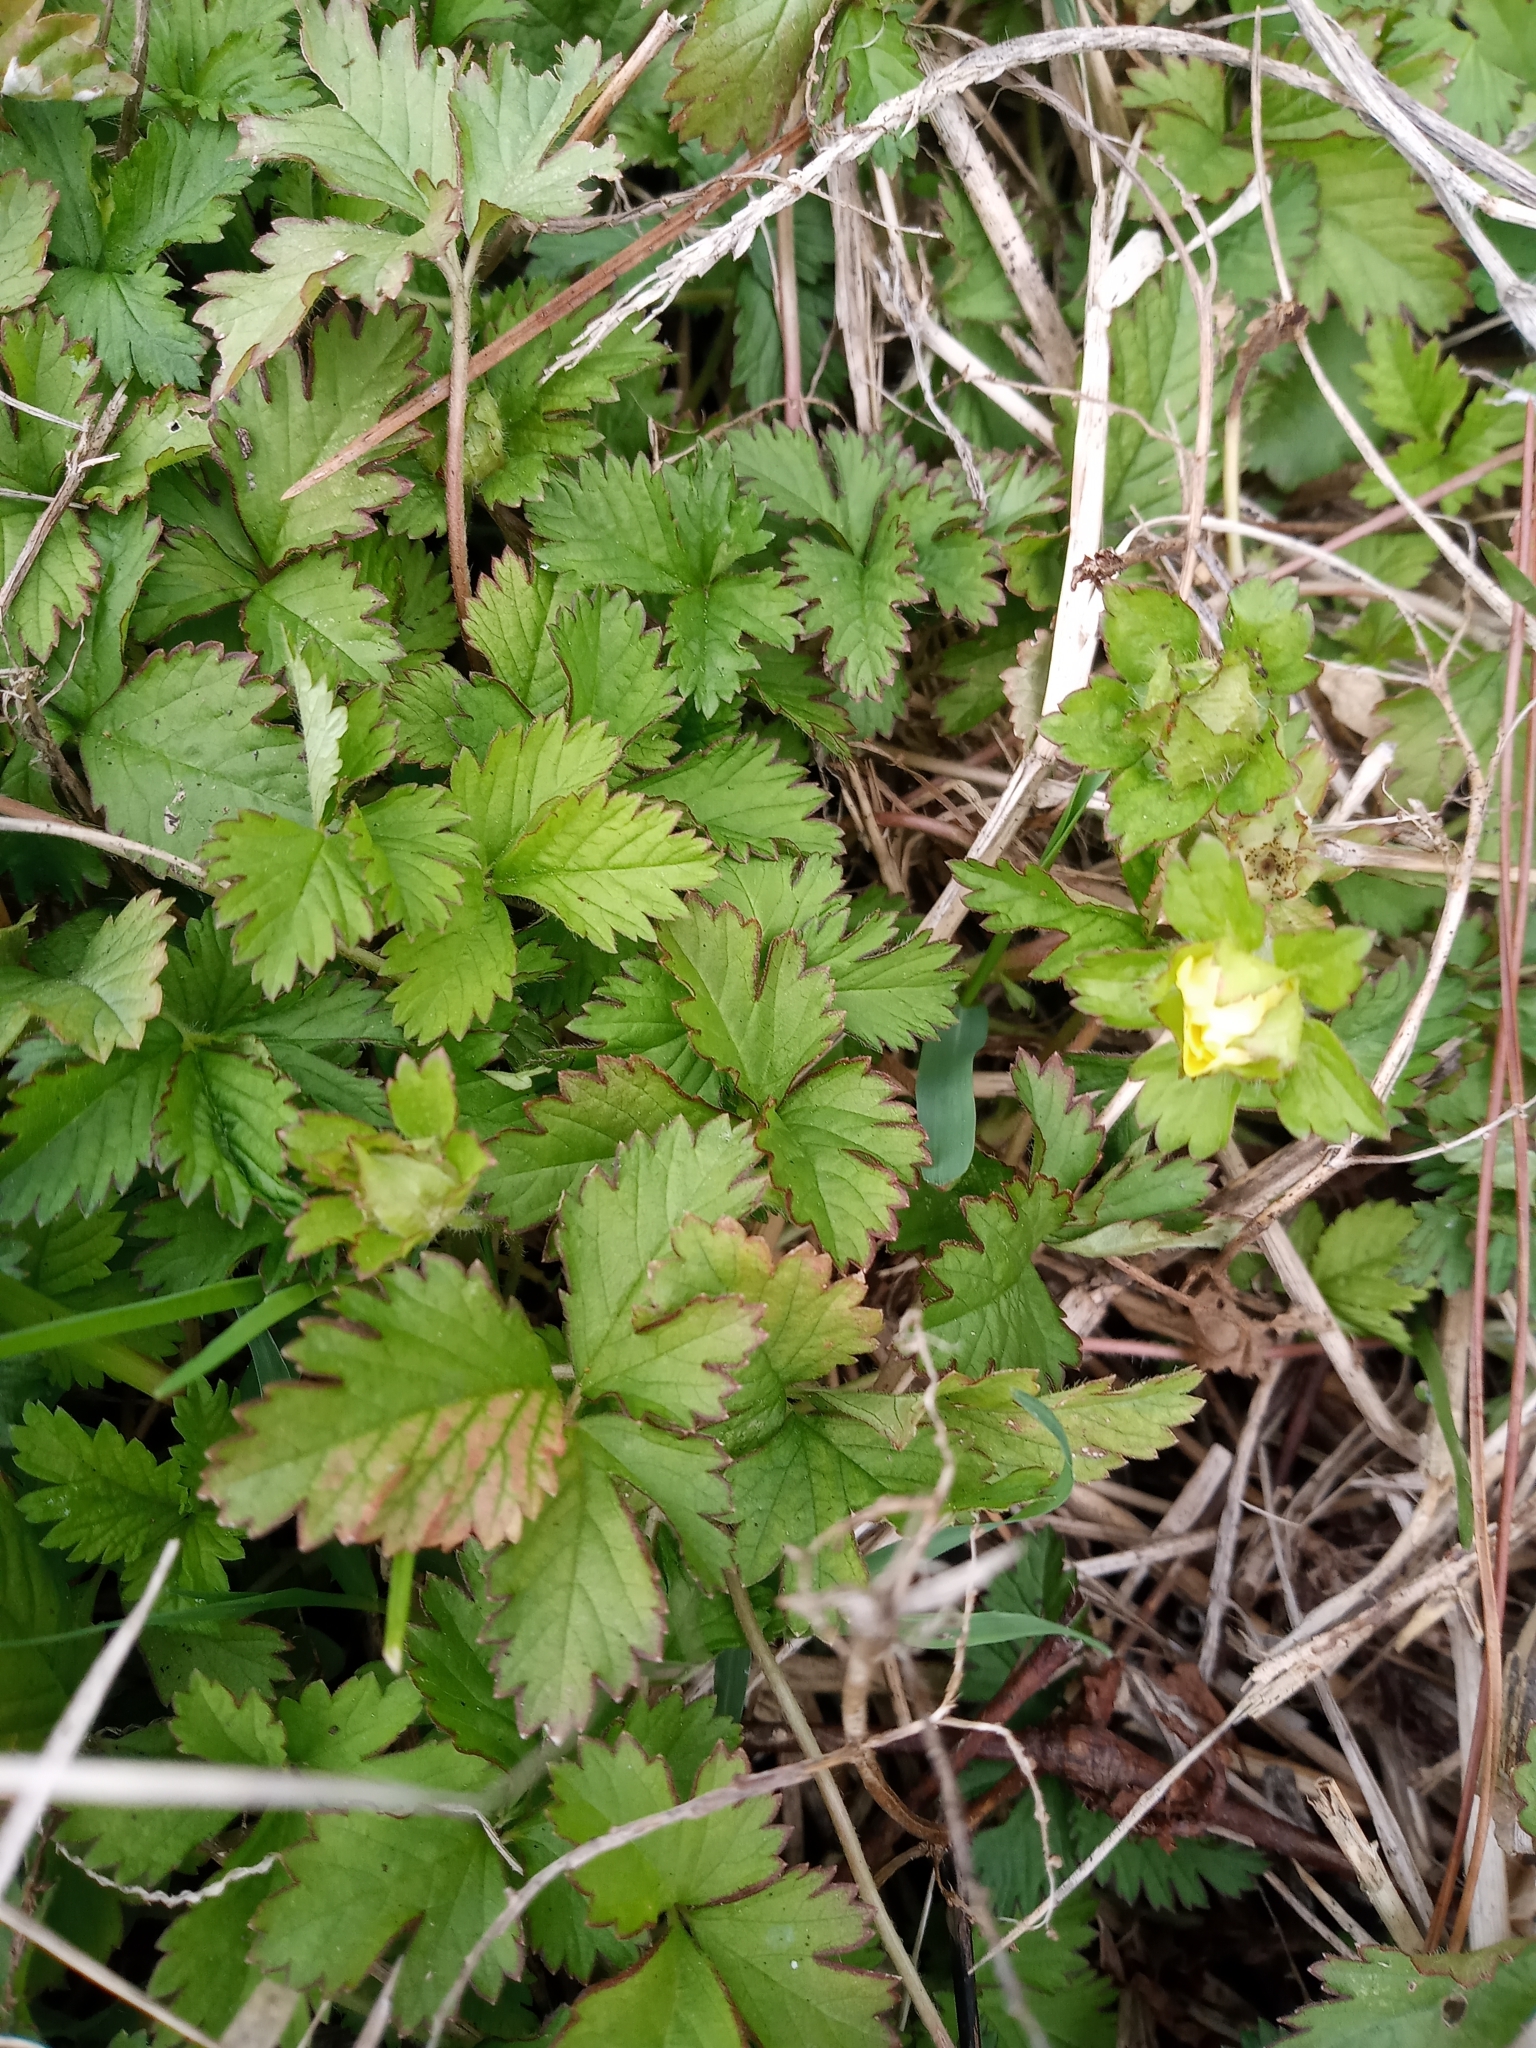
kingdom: Plantae
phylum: Tracheophyta
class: Magnoliopsida
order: Rosales
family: Rosaceae
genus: Potentilla
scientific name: Potentilla indica
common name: Yellow-flowered strawberry
